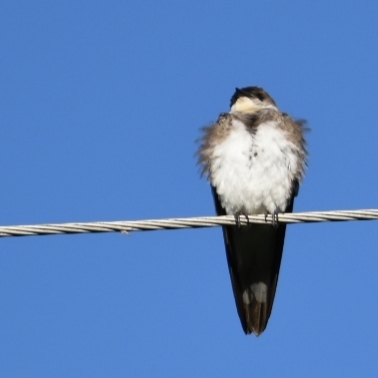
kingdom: Animalia
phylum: Chordata
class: Aves
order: Passeriformes
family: Hirundinidae
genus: Progne
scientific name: Progne tapera
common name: Brown-chested martin
